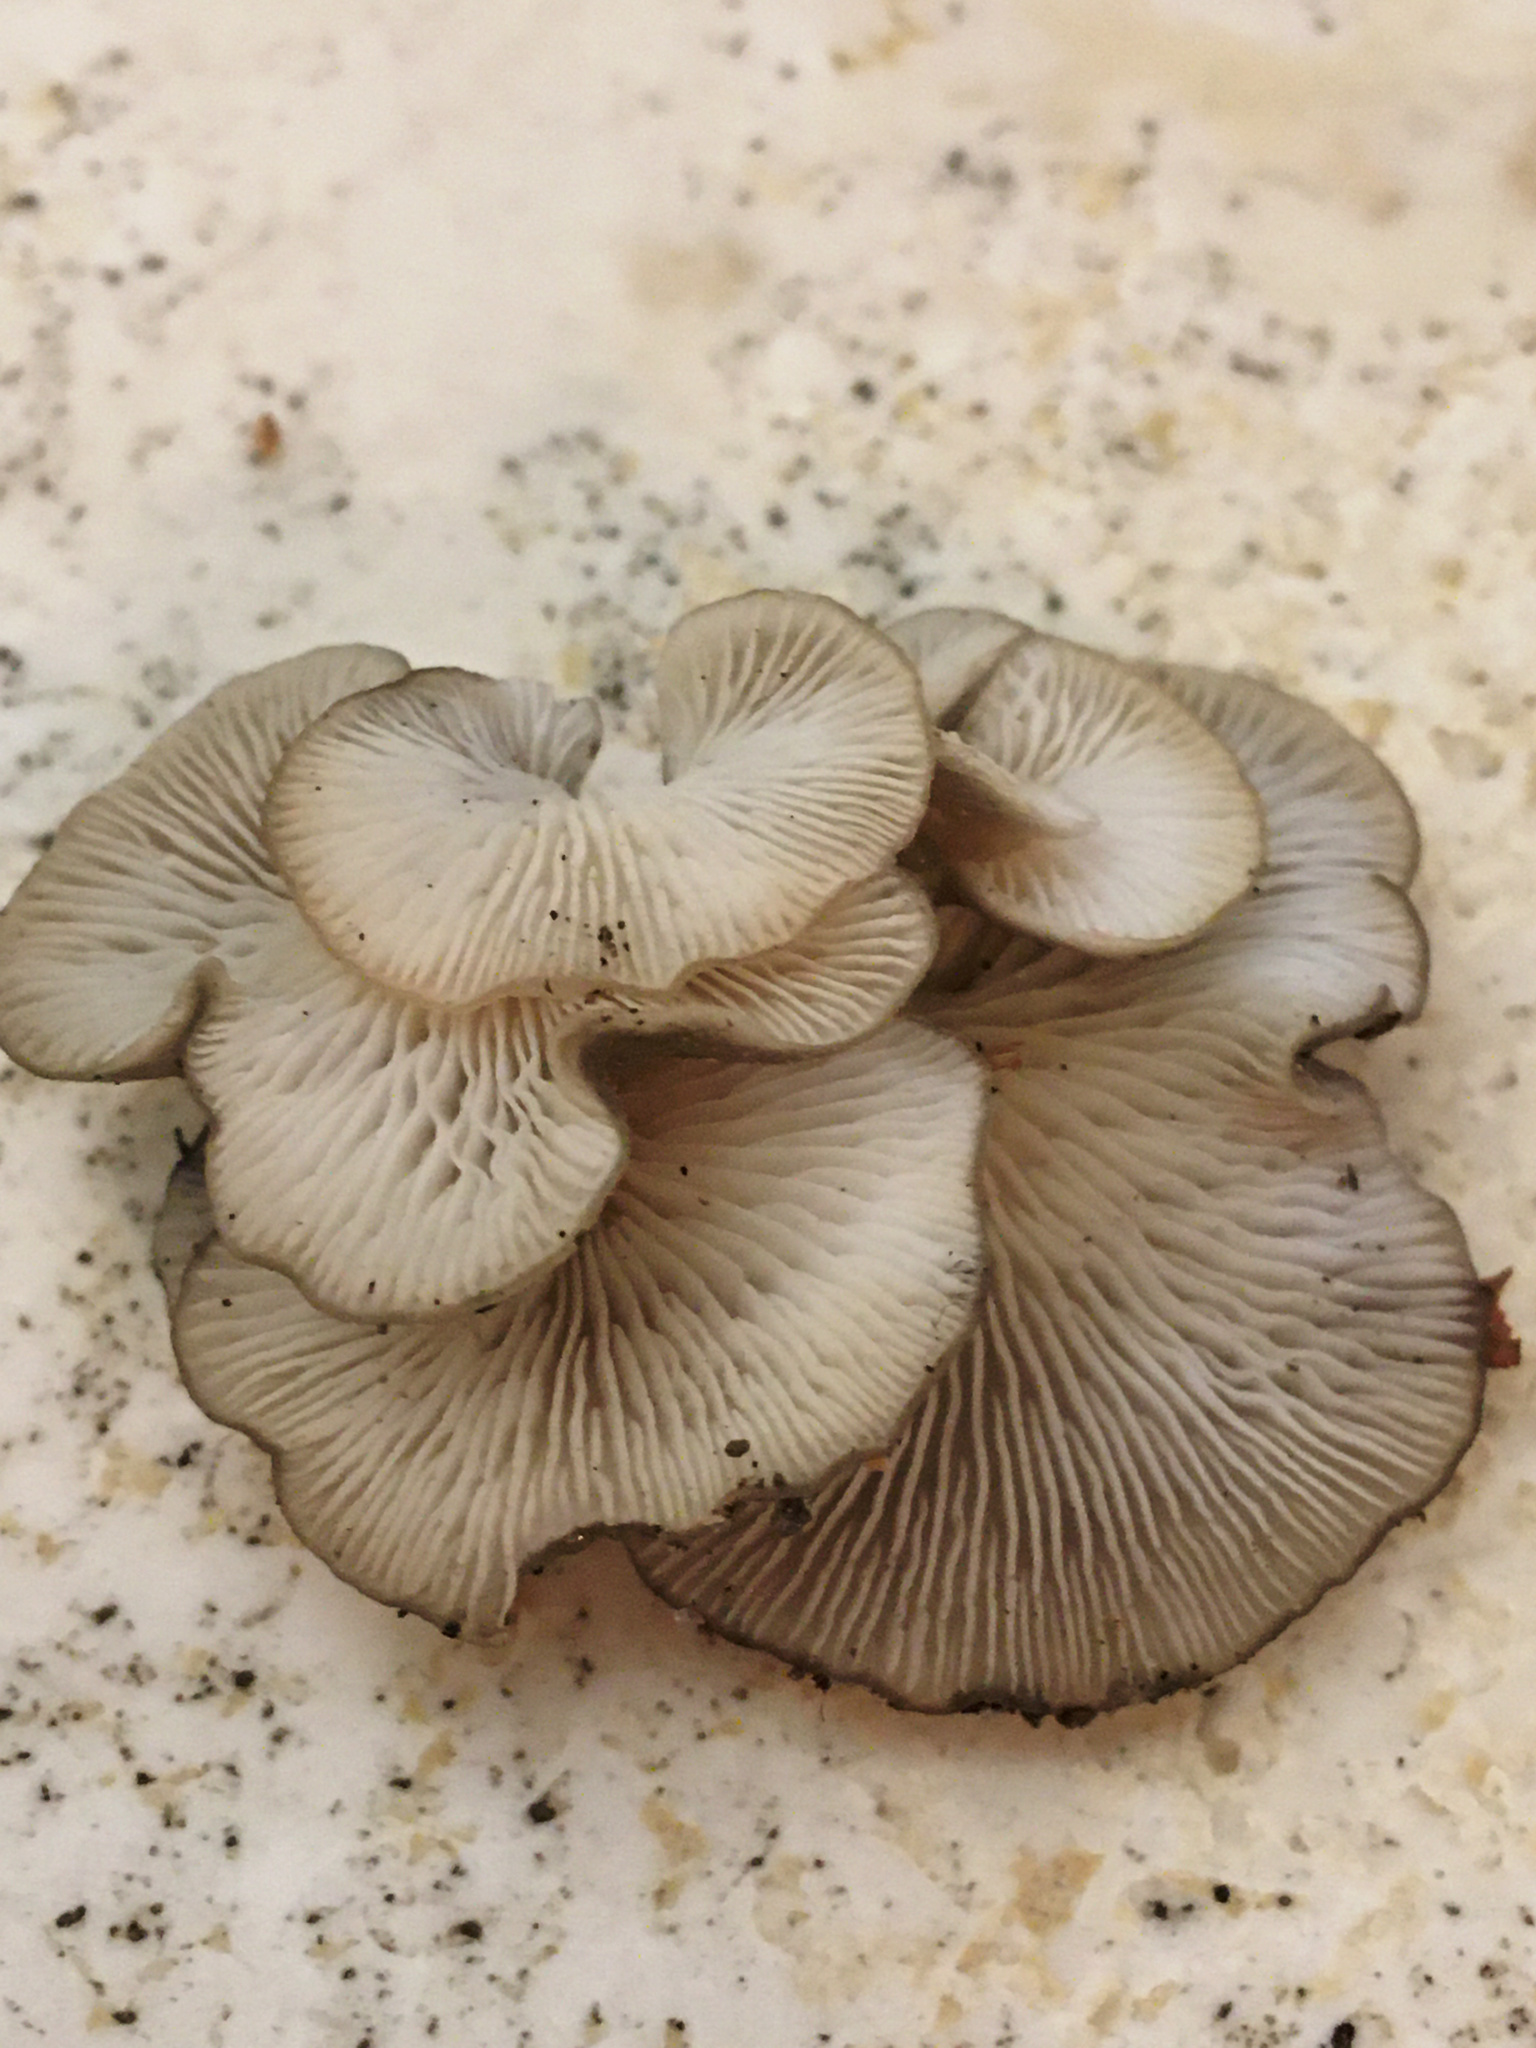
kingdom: Fungi
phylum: Basidiomycota
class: Agaricomycetes
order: Agaricales
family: Pleurotaceae
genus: Hohenbuehelia
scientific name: Hohenbuehelia grisea
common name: Shadowy oysterling
